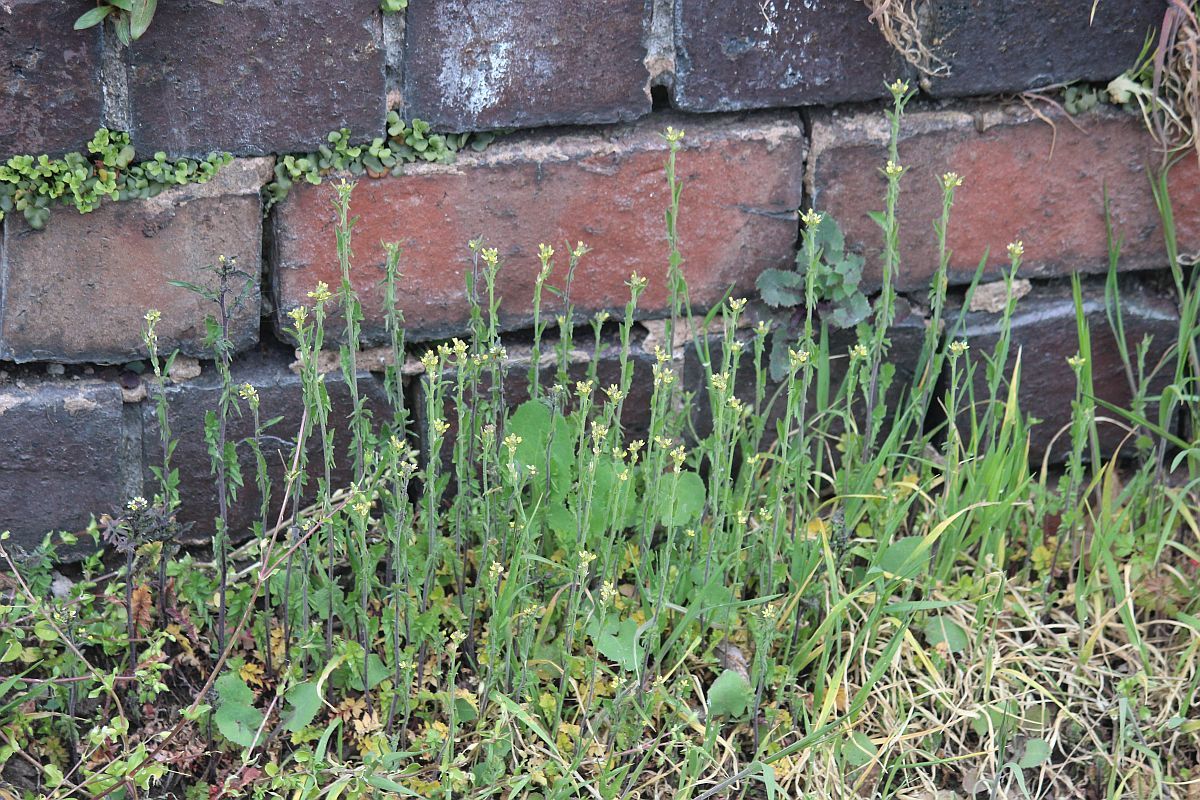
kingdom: Plantae
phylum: Tracheophyta
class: Magnoliopsida
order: Brassicales
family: Brassicaceae
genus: Sisymbrium
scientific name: Sisymbrium officinale
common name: Hedge mustard
